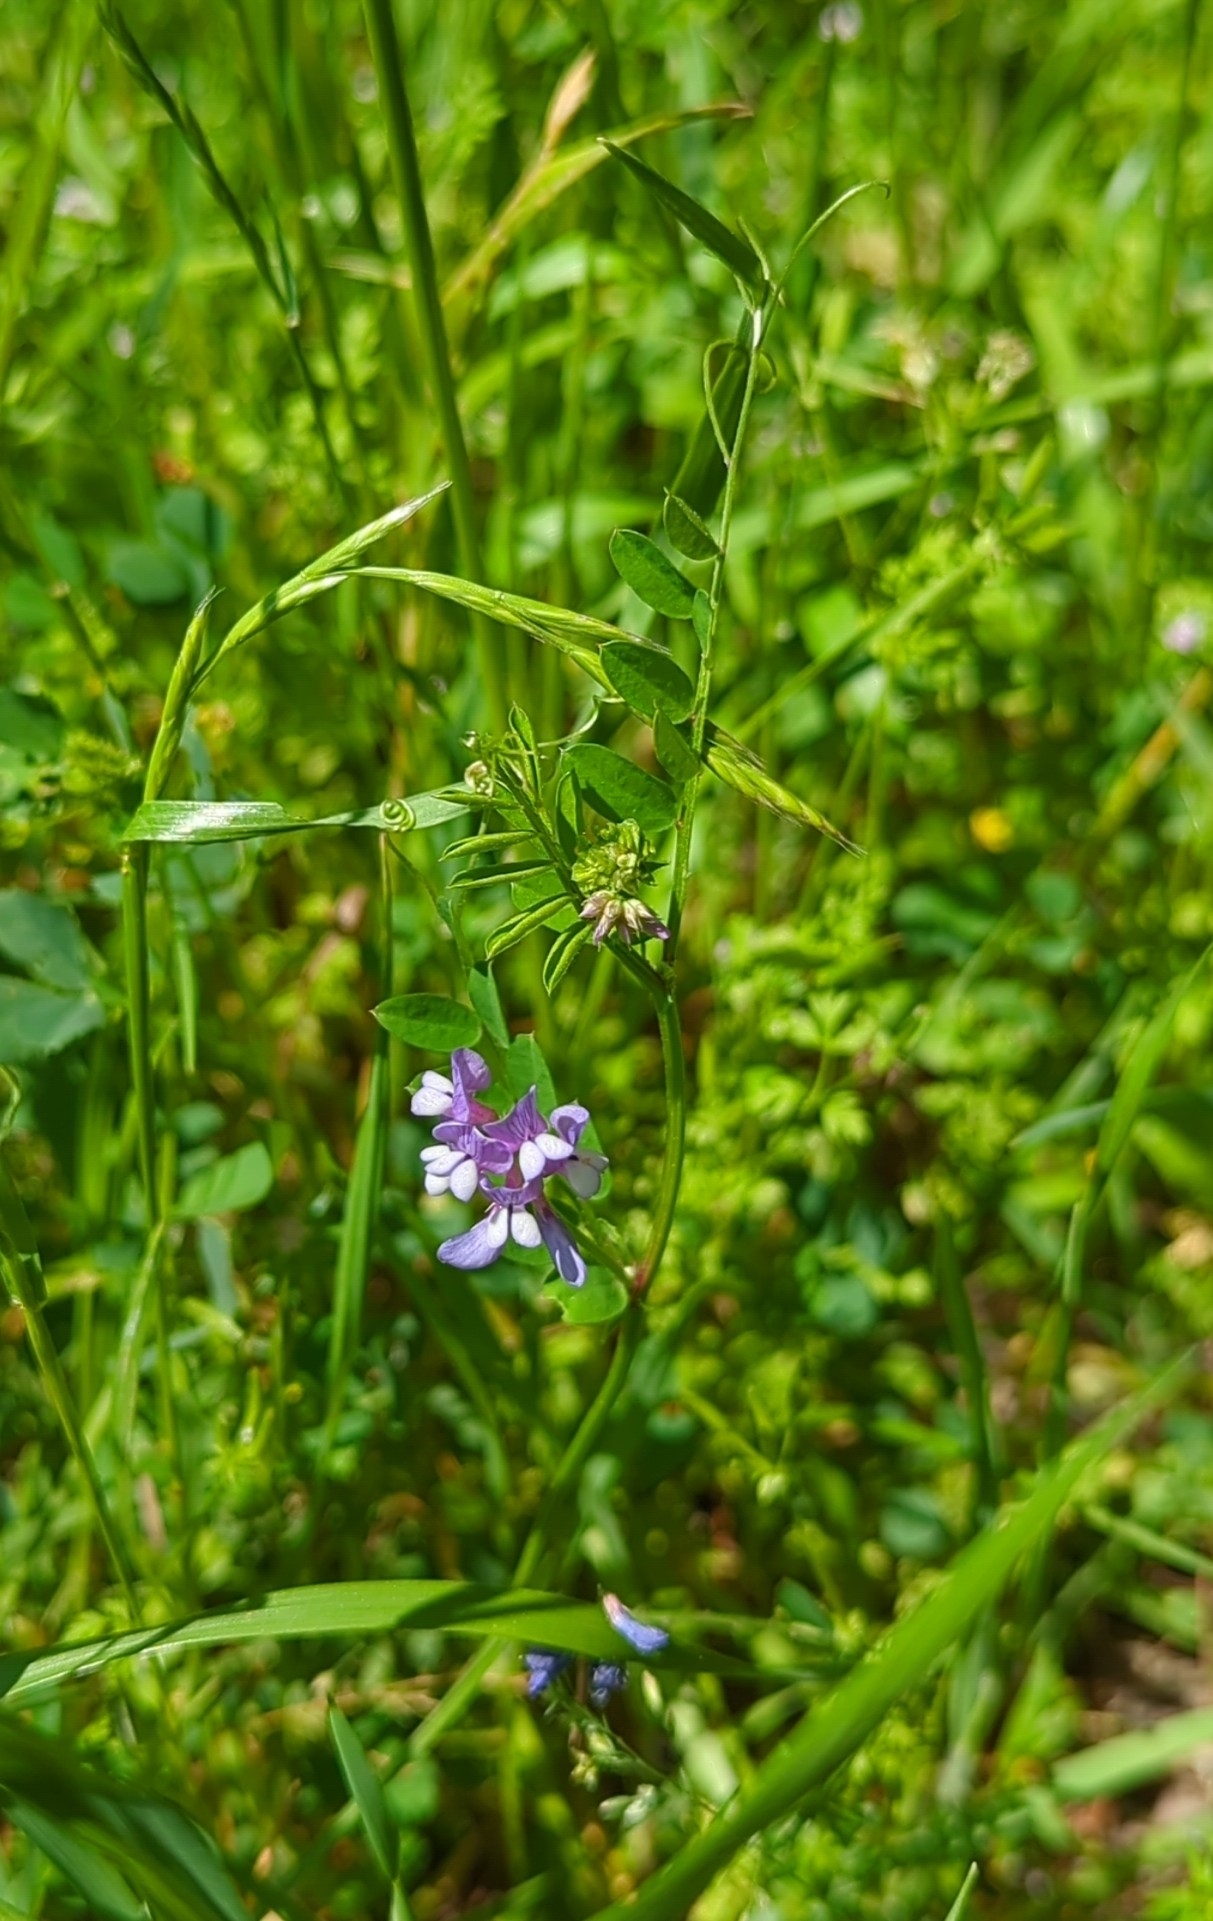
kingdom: Plantae
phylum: Tracheophyta
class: Magnoliopsida
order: Fabales
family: Fabaceae
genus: Vicia
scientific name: Vicia ludoviciana
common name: Louisiana vetch
